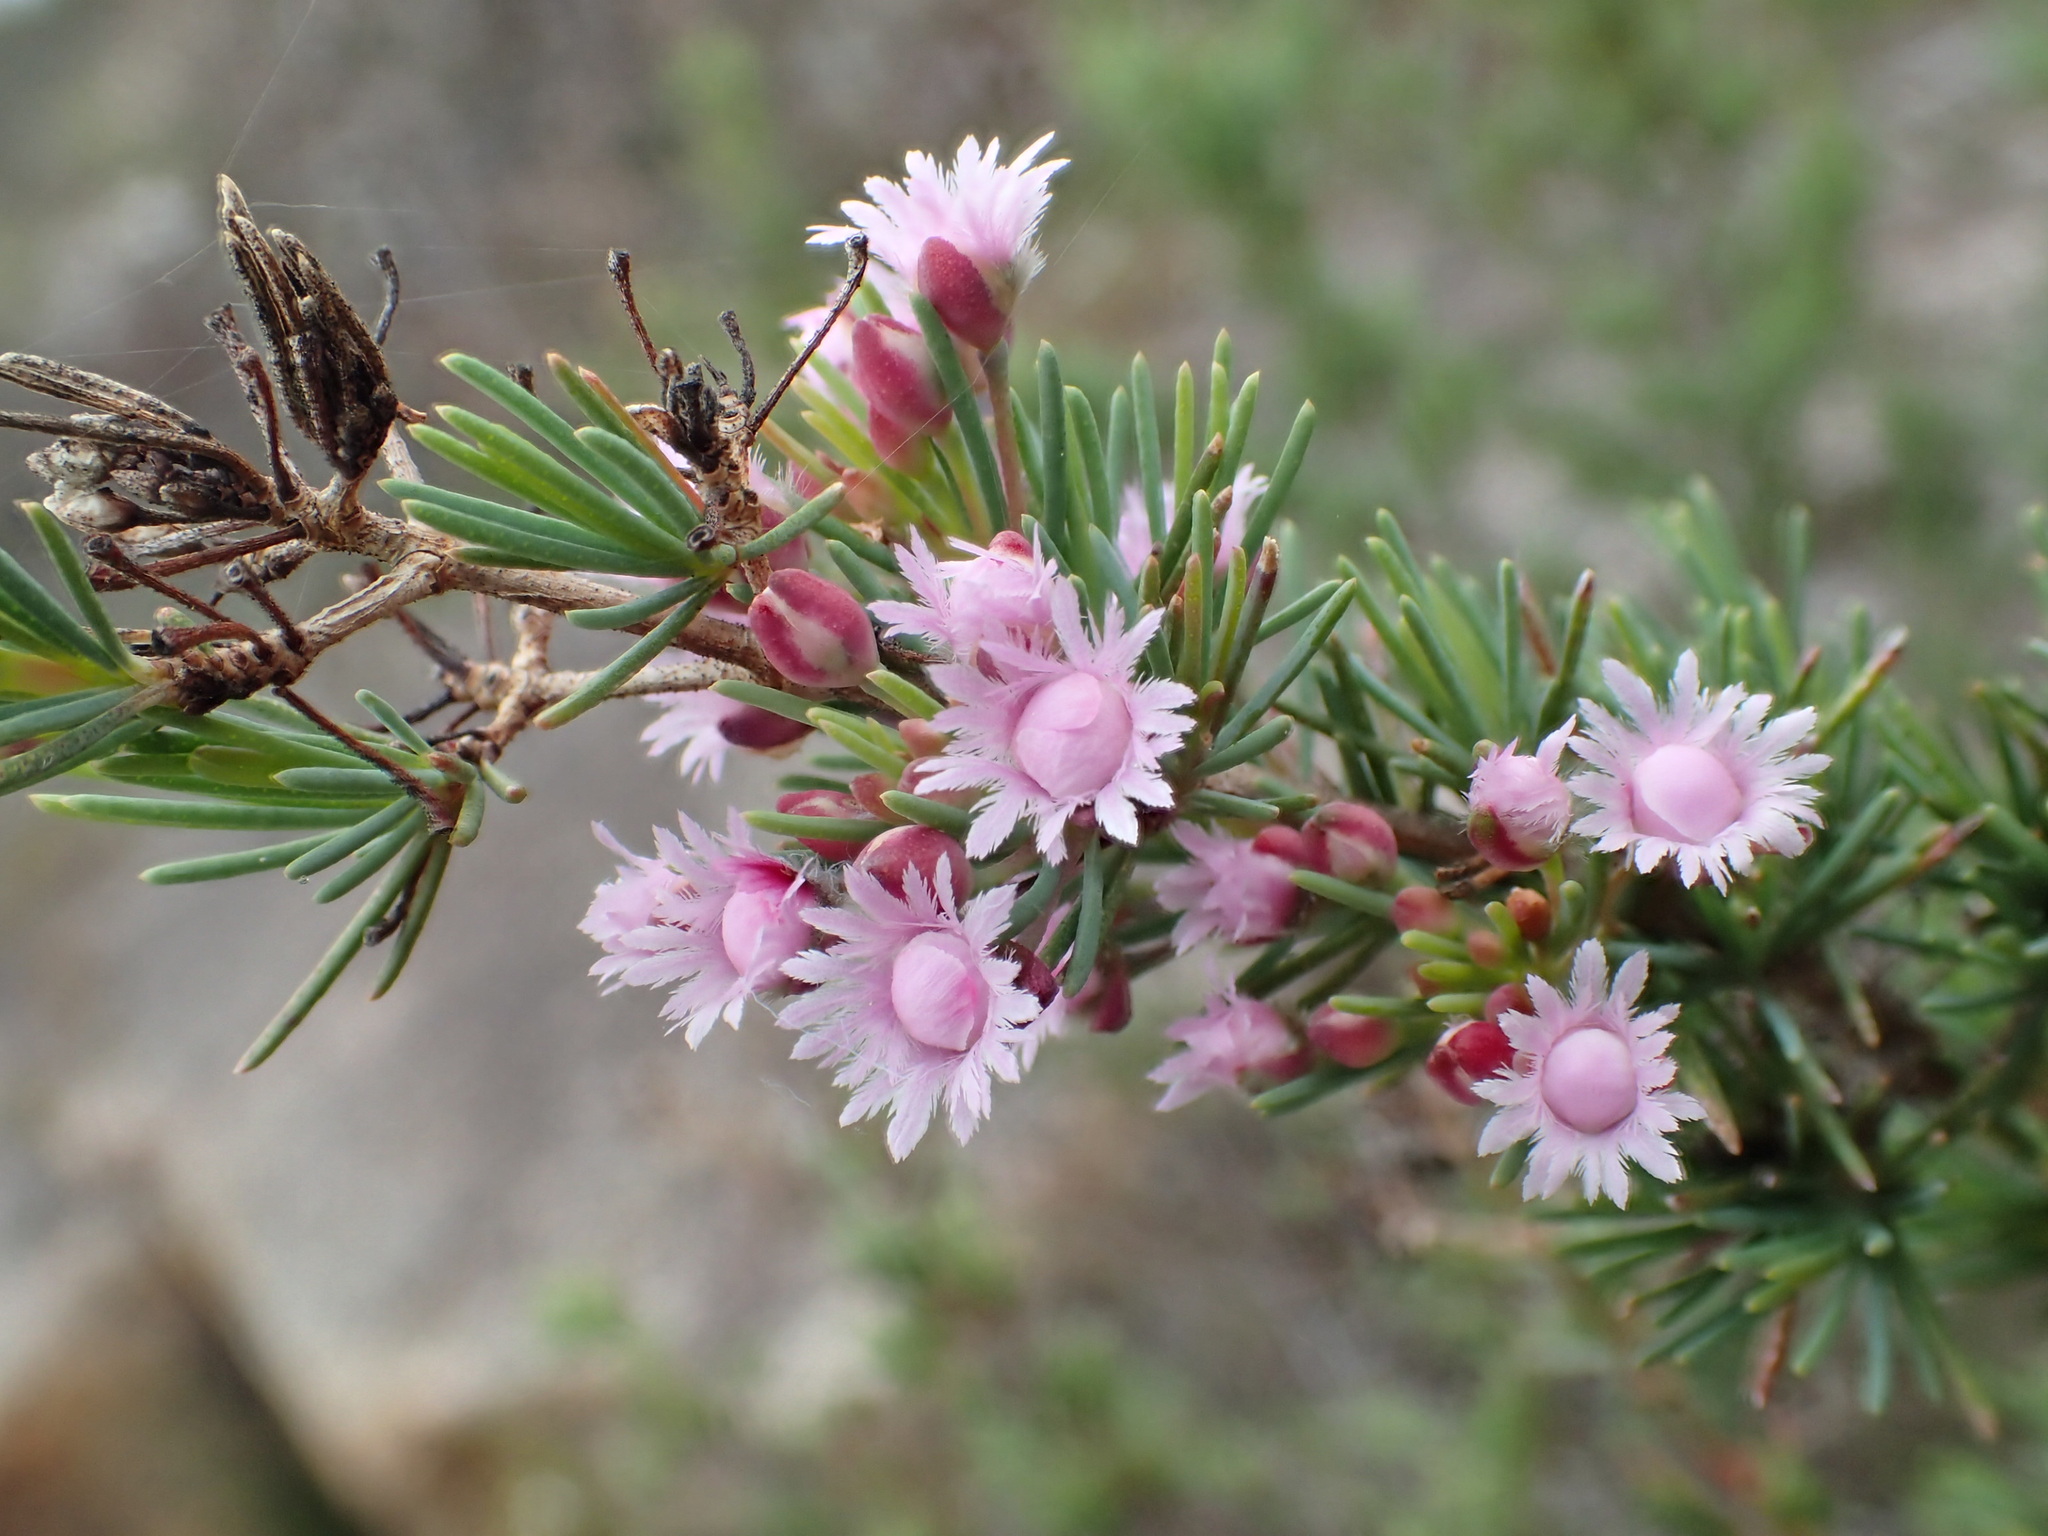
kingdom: Plantae
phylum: Tracheophyta
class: Magnoliopsida
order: Myrtales
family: Myrtaceae
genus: Verticordia
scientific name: Verticordia plumosa
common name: Plume feather-flower
